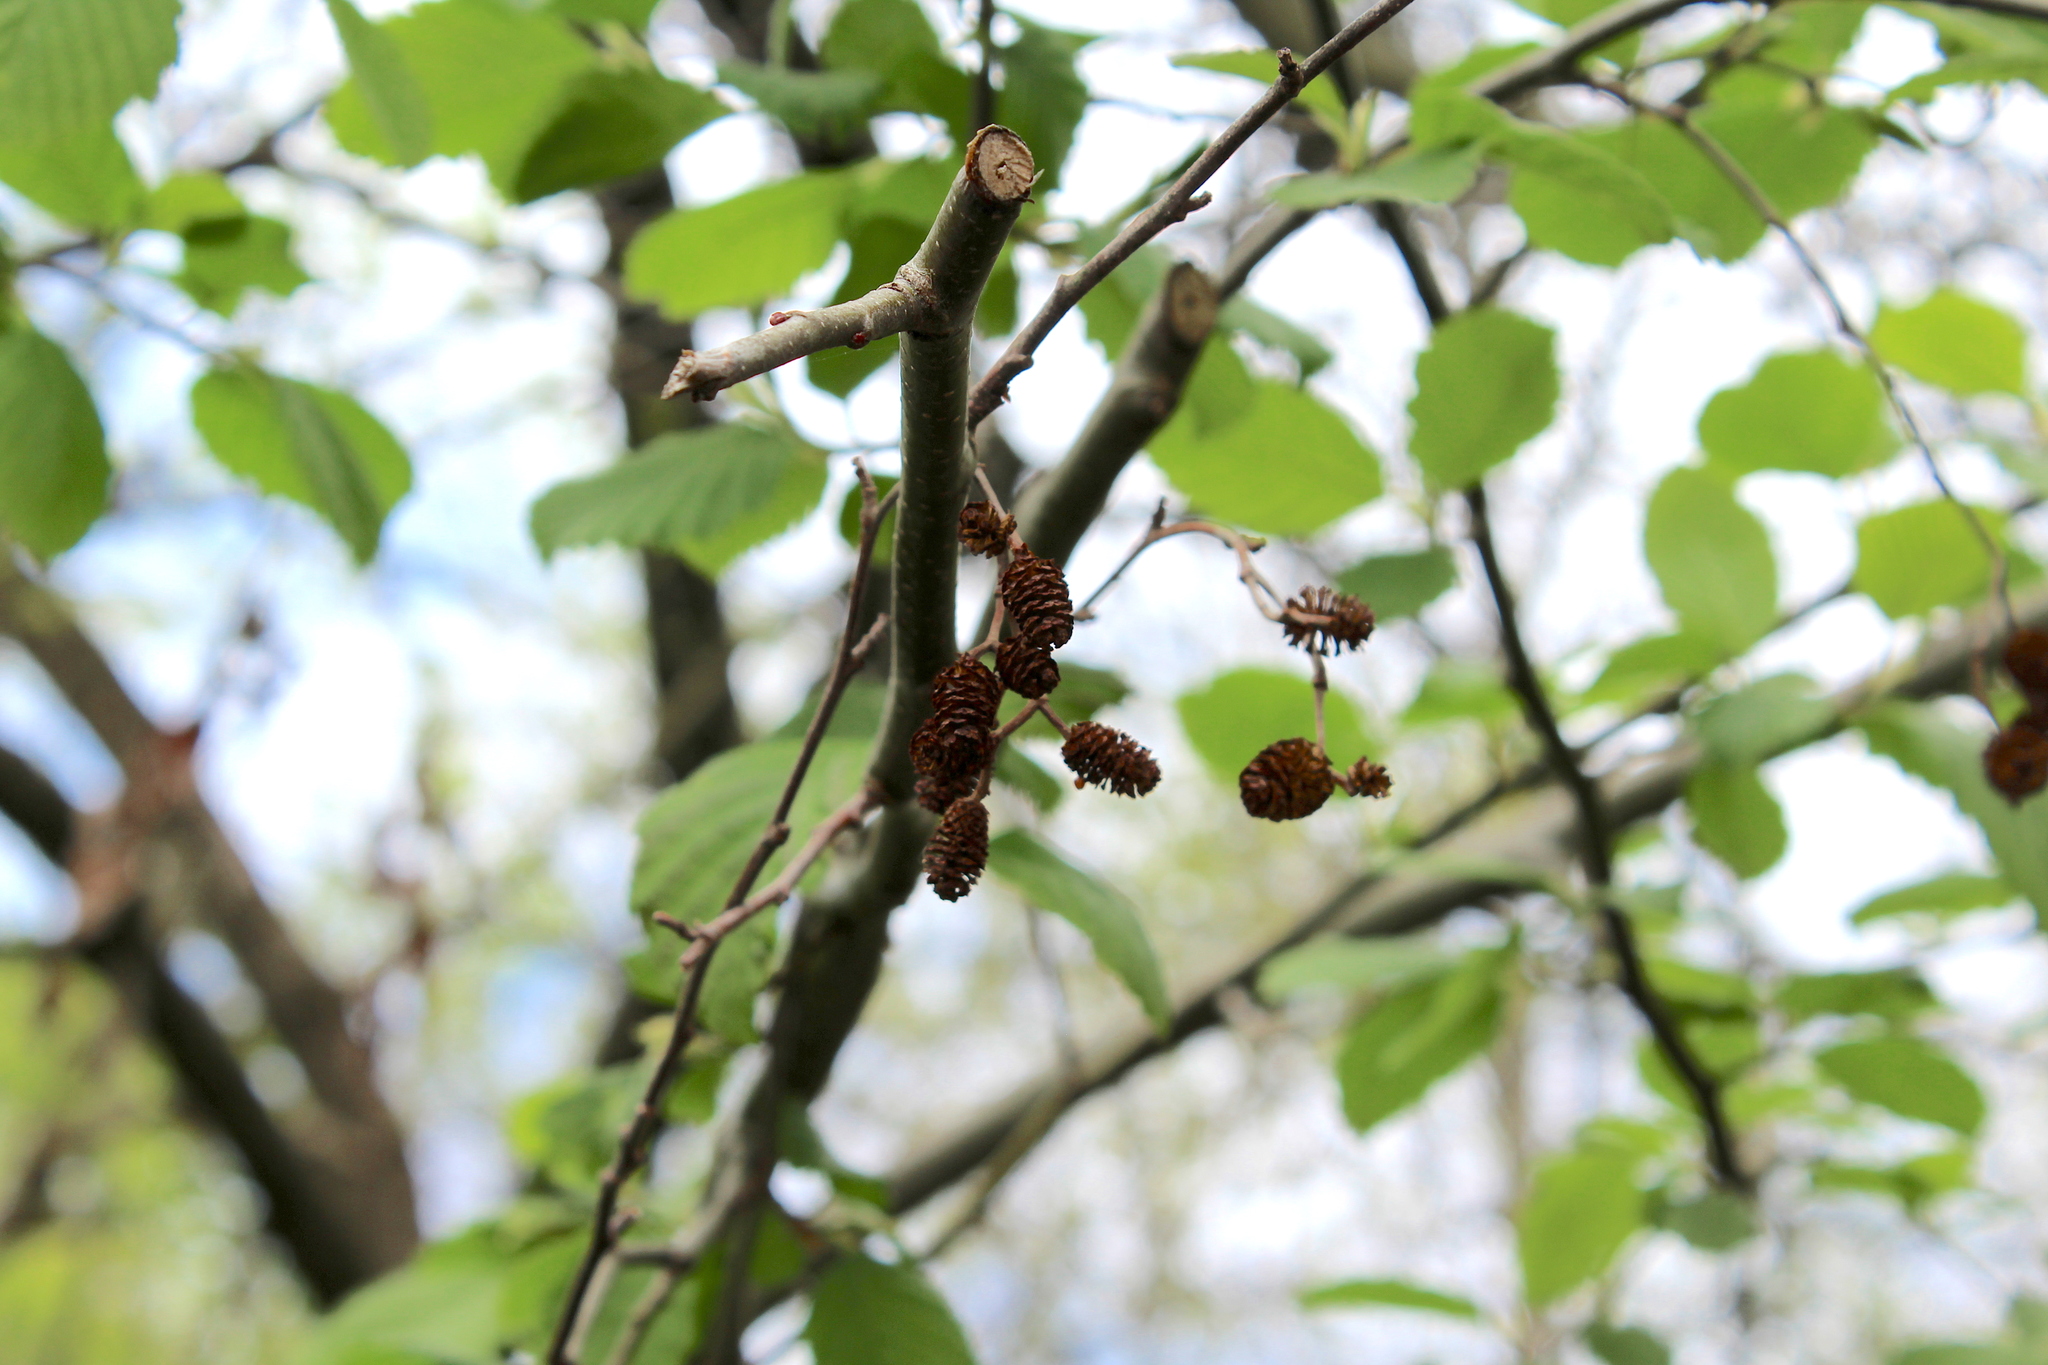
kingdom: Plantae
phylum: Tracheophyta
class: Magnoliopsida
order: Fagales
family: Betulaceae
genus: Alnus
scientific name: Alnus incana
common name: Grey alder
